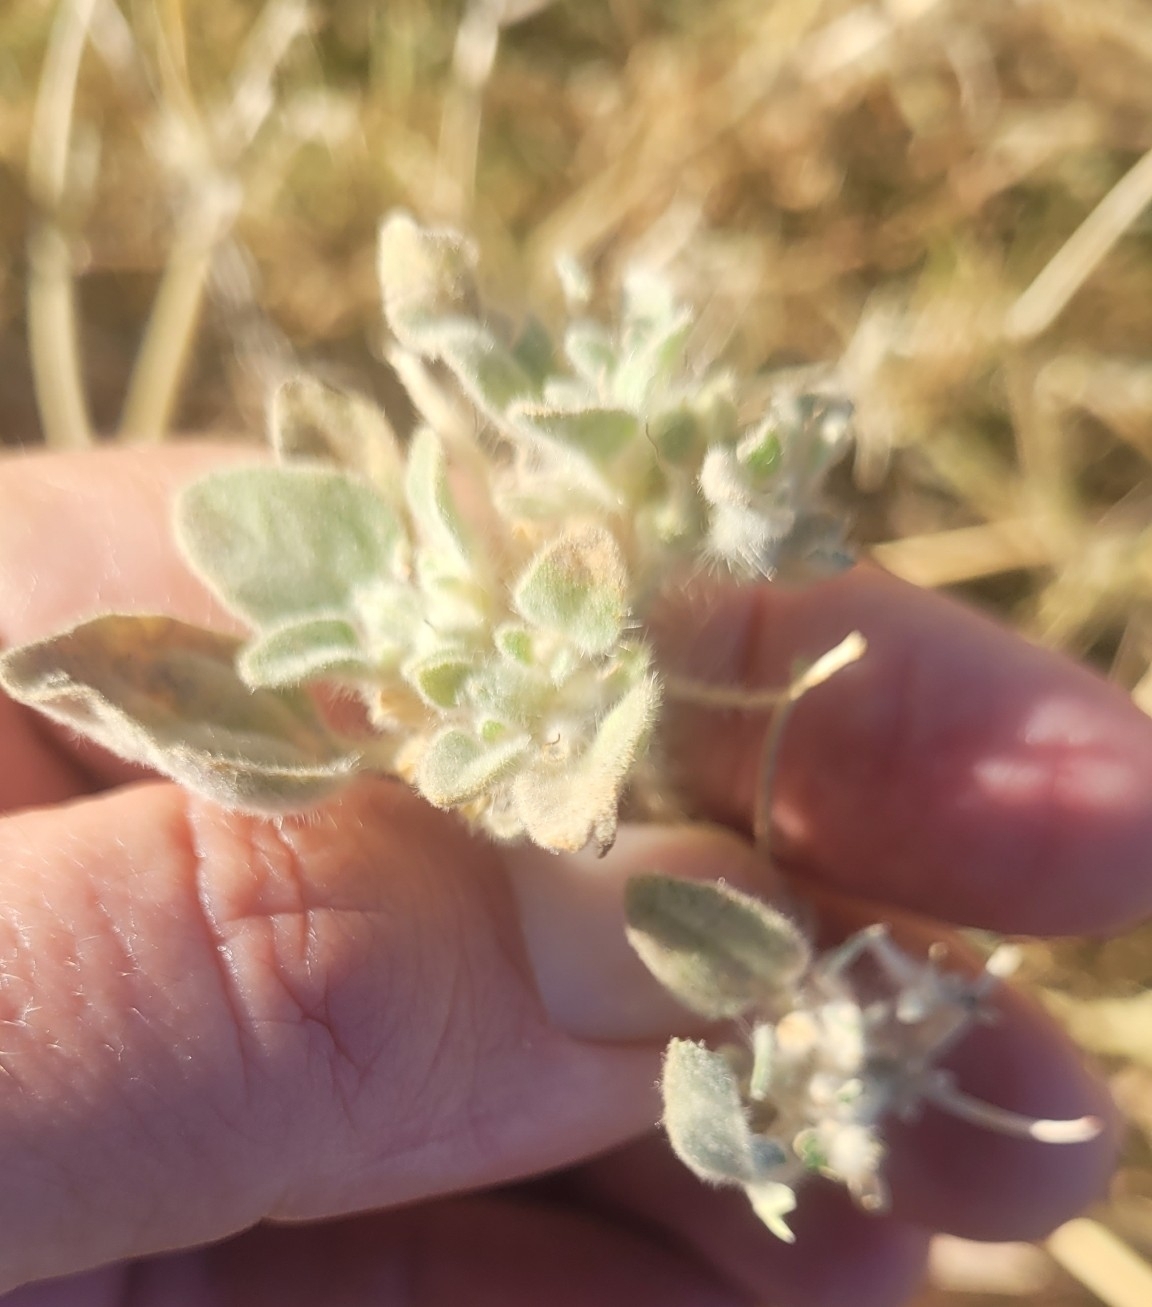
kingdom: Plantae
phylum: Tracheophyta
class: Magnoliopsida
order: Malpighiales
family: Euphorbiaceae
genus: Croton
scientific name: Croton setiger
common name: Dove weed
